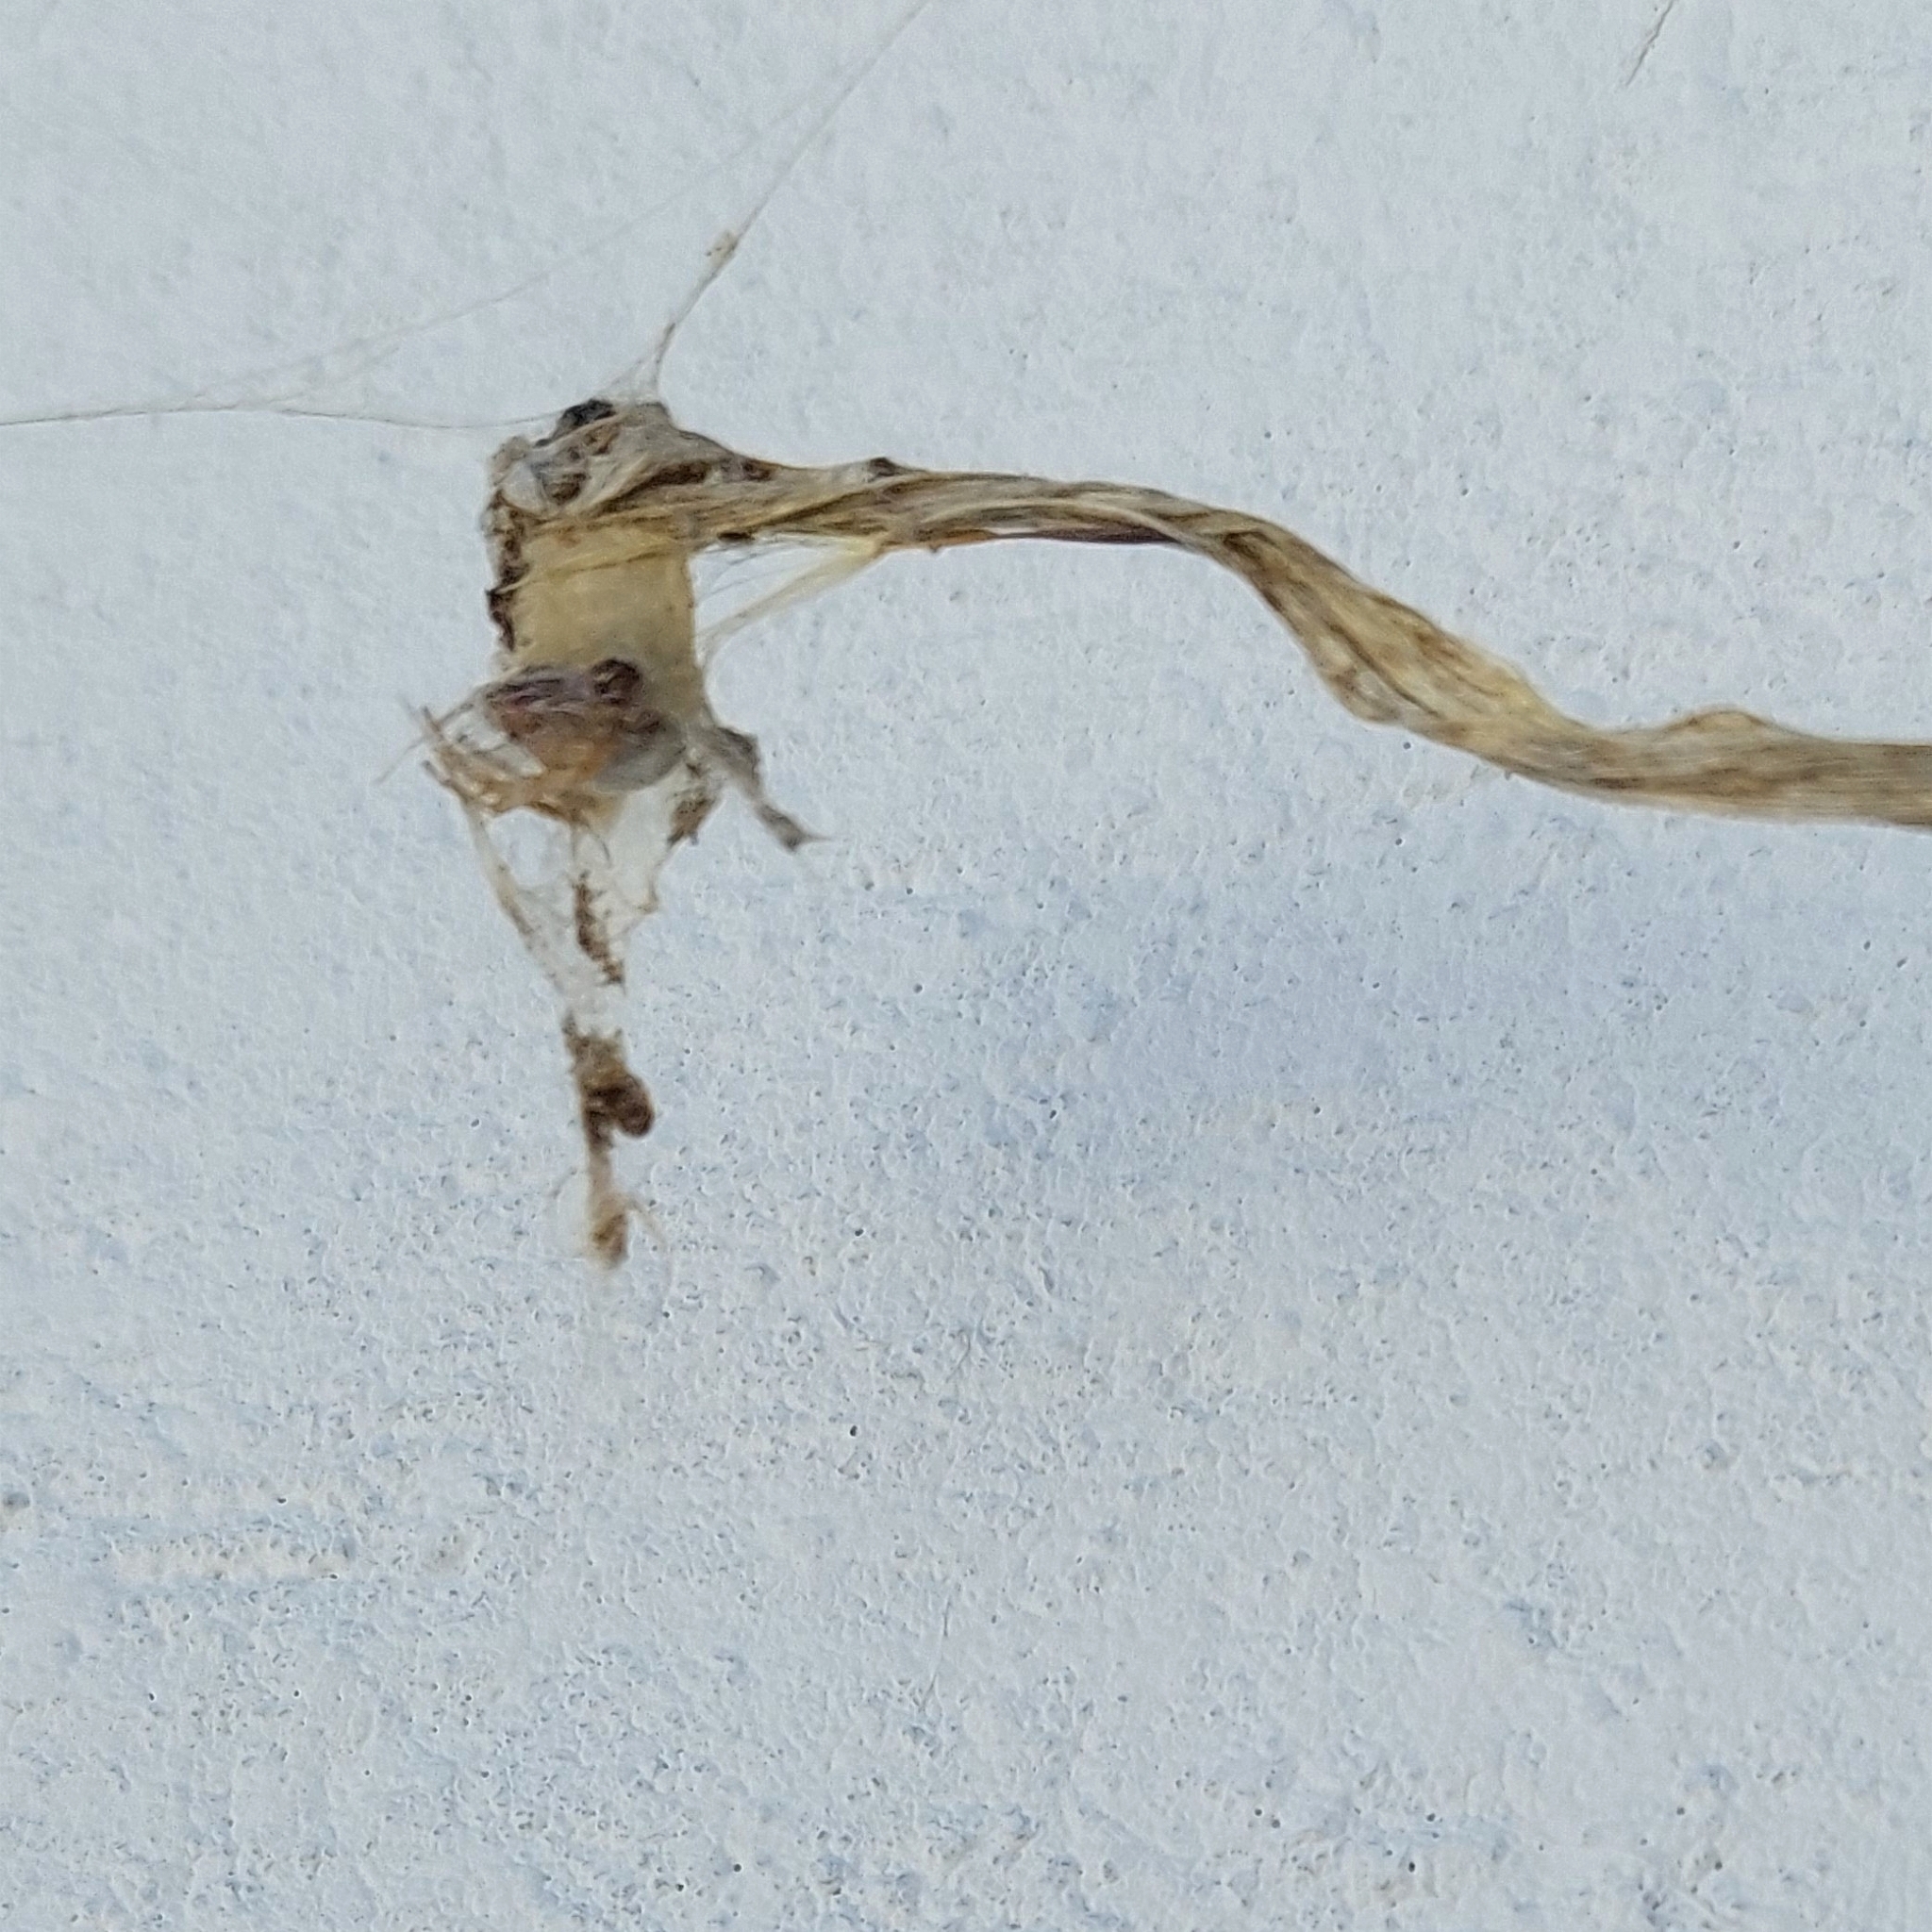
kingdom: Animalia
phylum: Arthropoda
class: Arachnida
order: Araneae
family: Araneidae
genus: Metepeira
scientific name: Metepeira
